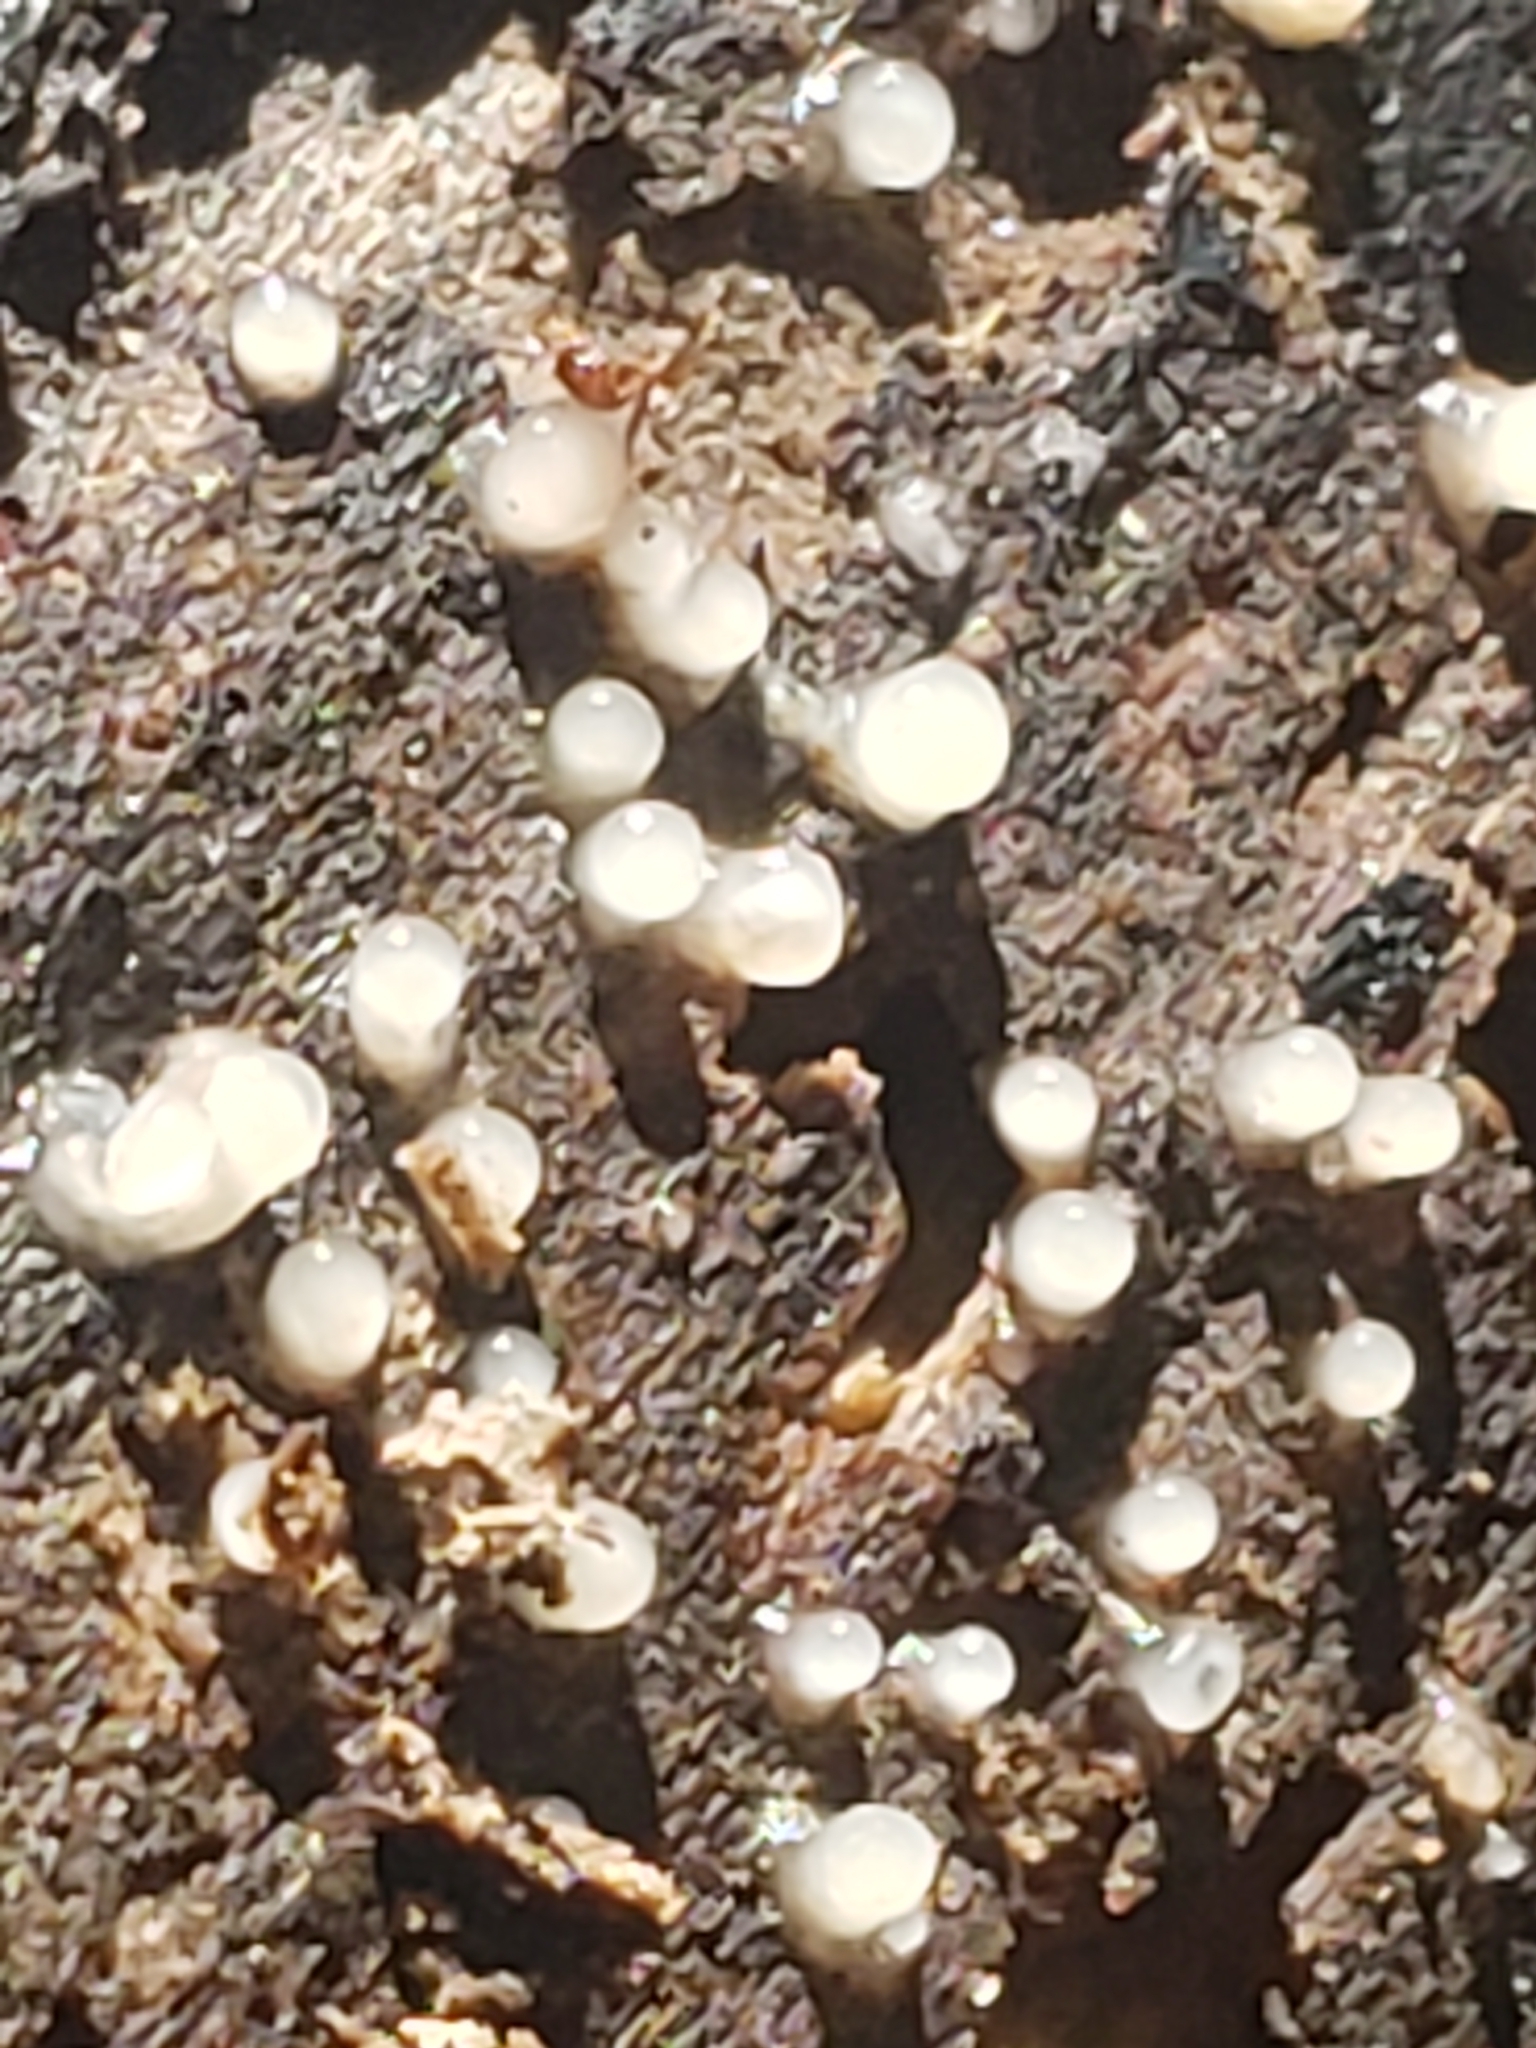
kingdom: Fungi
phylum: Basidiomycota
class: Atractiellomycetes
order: Atractiellales
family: Phleogenaceae
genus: Helicogloea
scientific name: Helicogloea compressa
